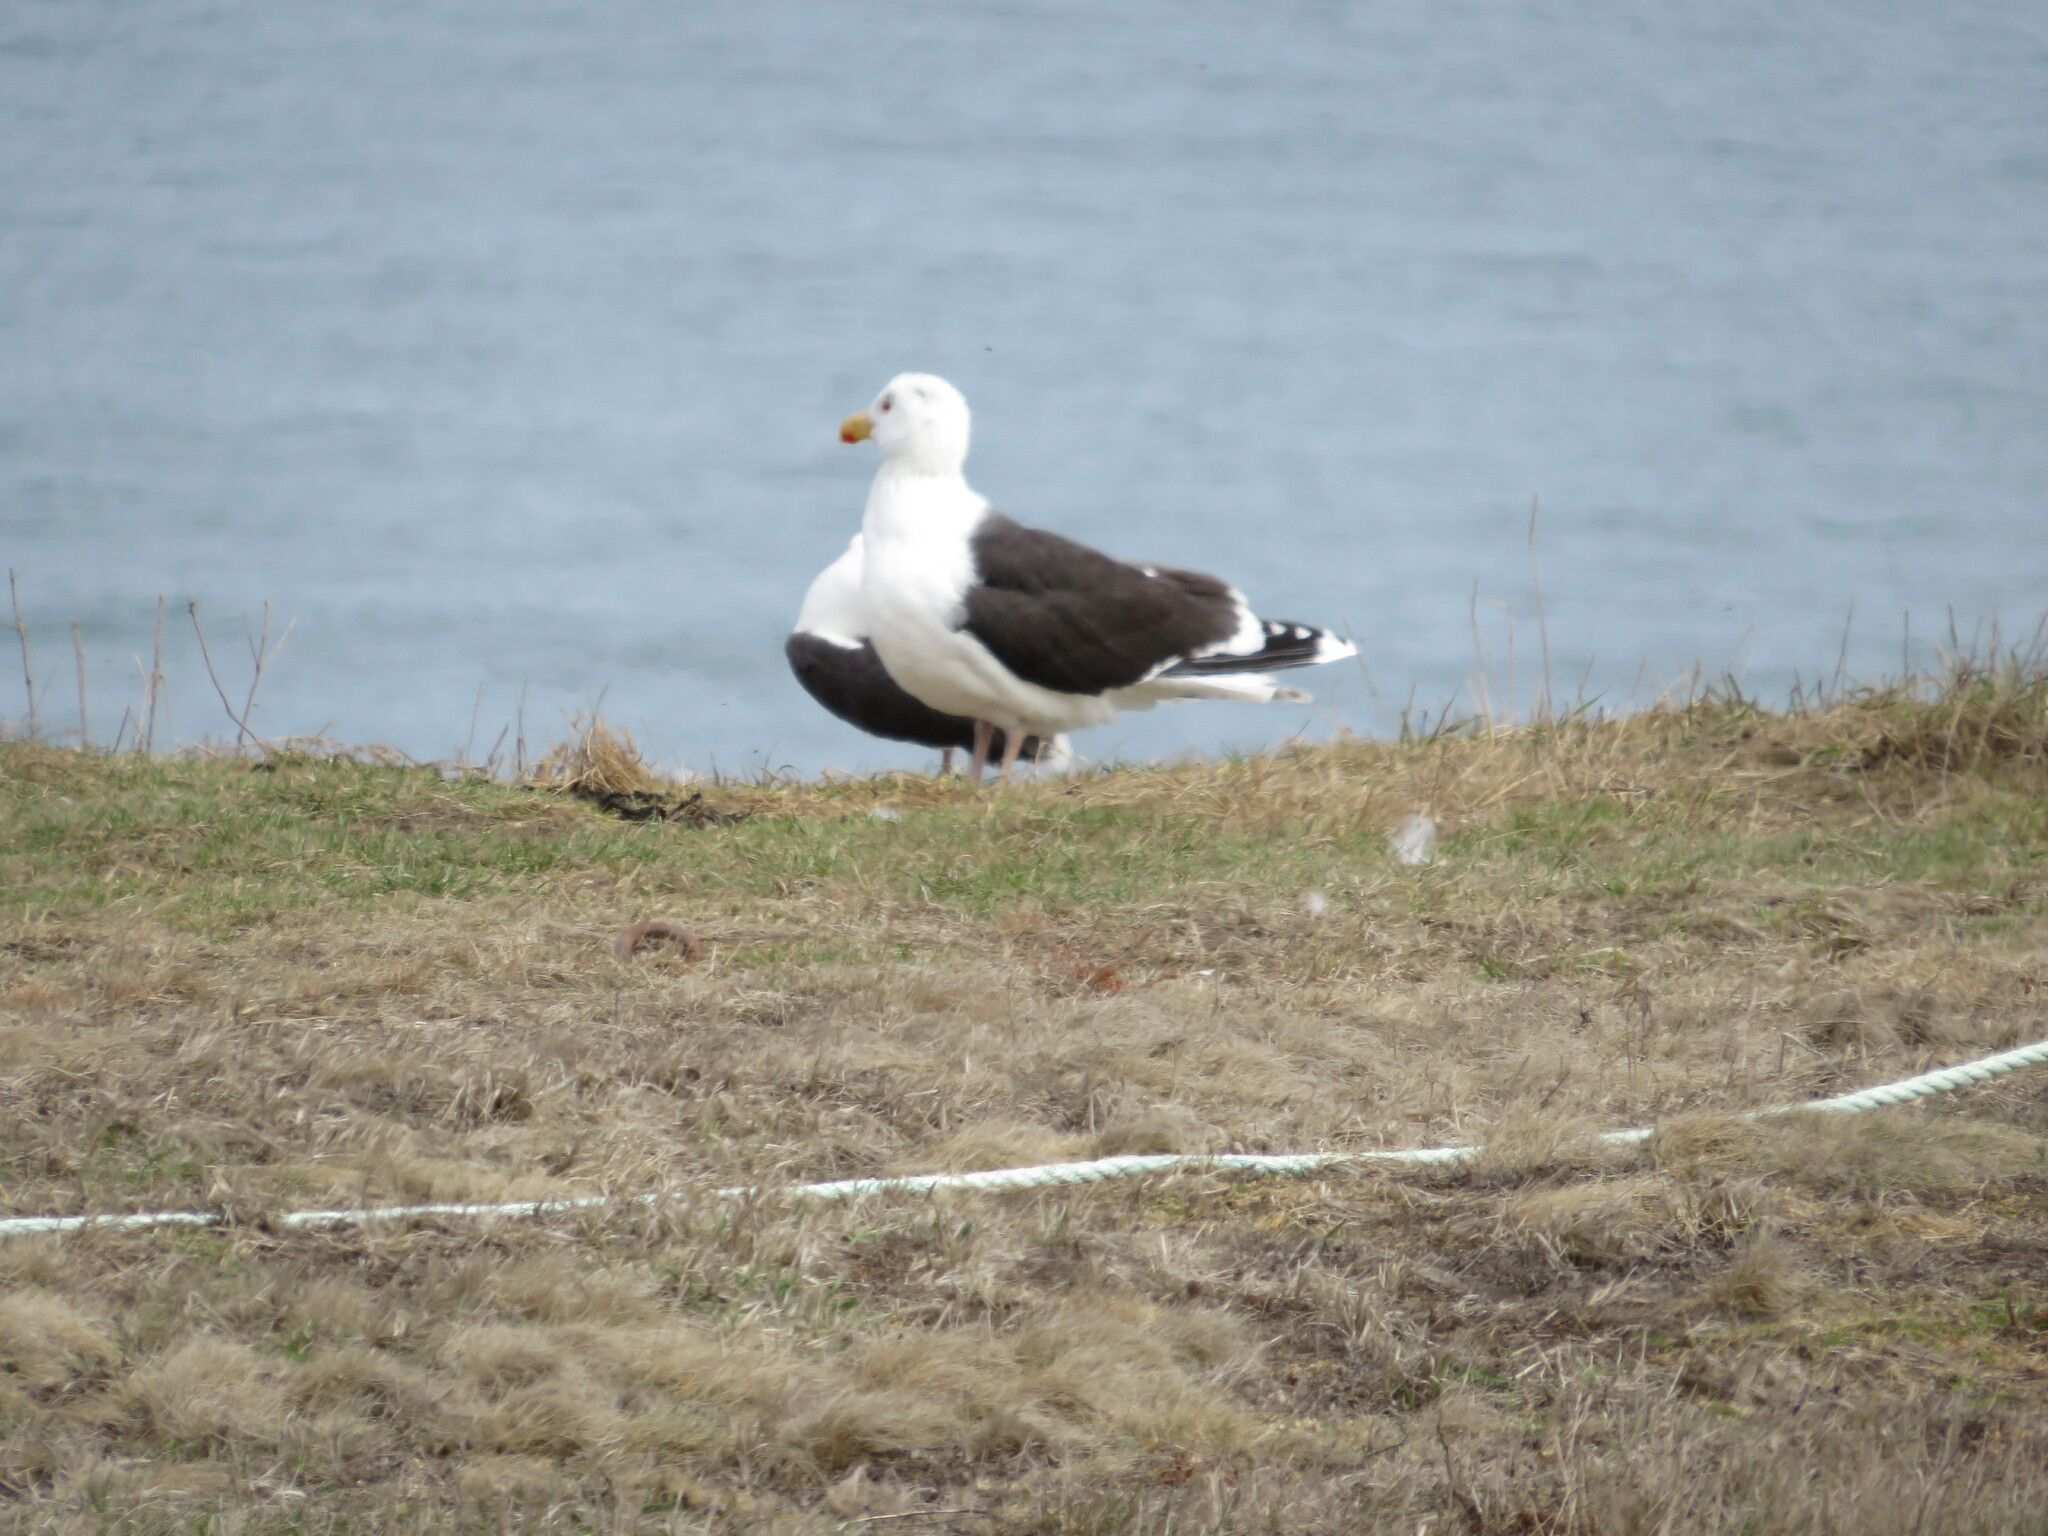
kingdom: Animalia
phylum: Chordata
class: Aves
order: Charadriiformes
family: Laridae
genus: Larus
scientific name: Larus marinus
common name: Great black-backed gull
